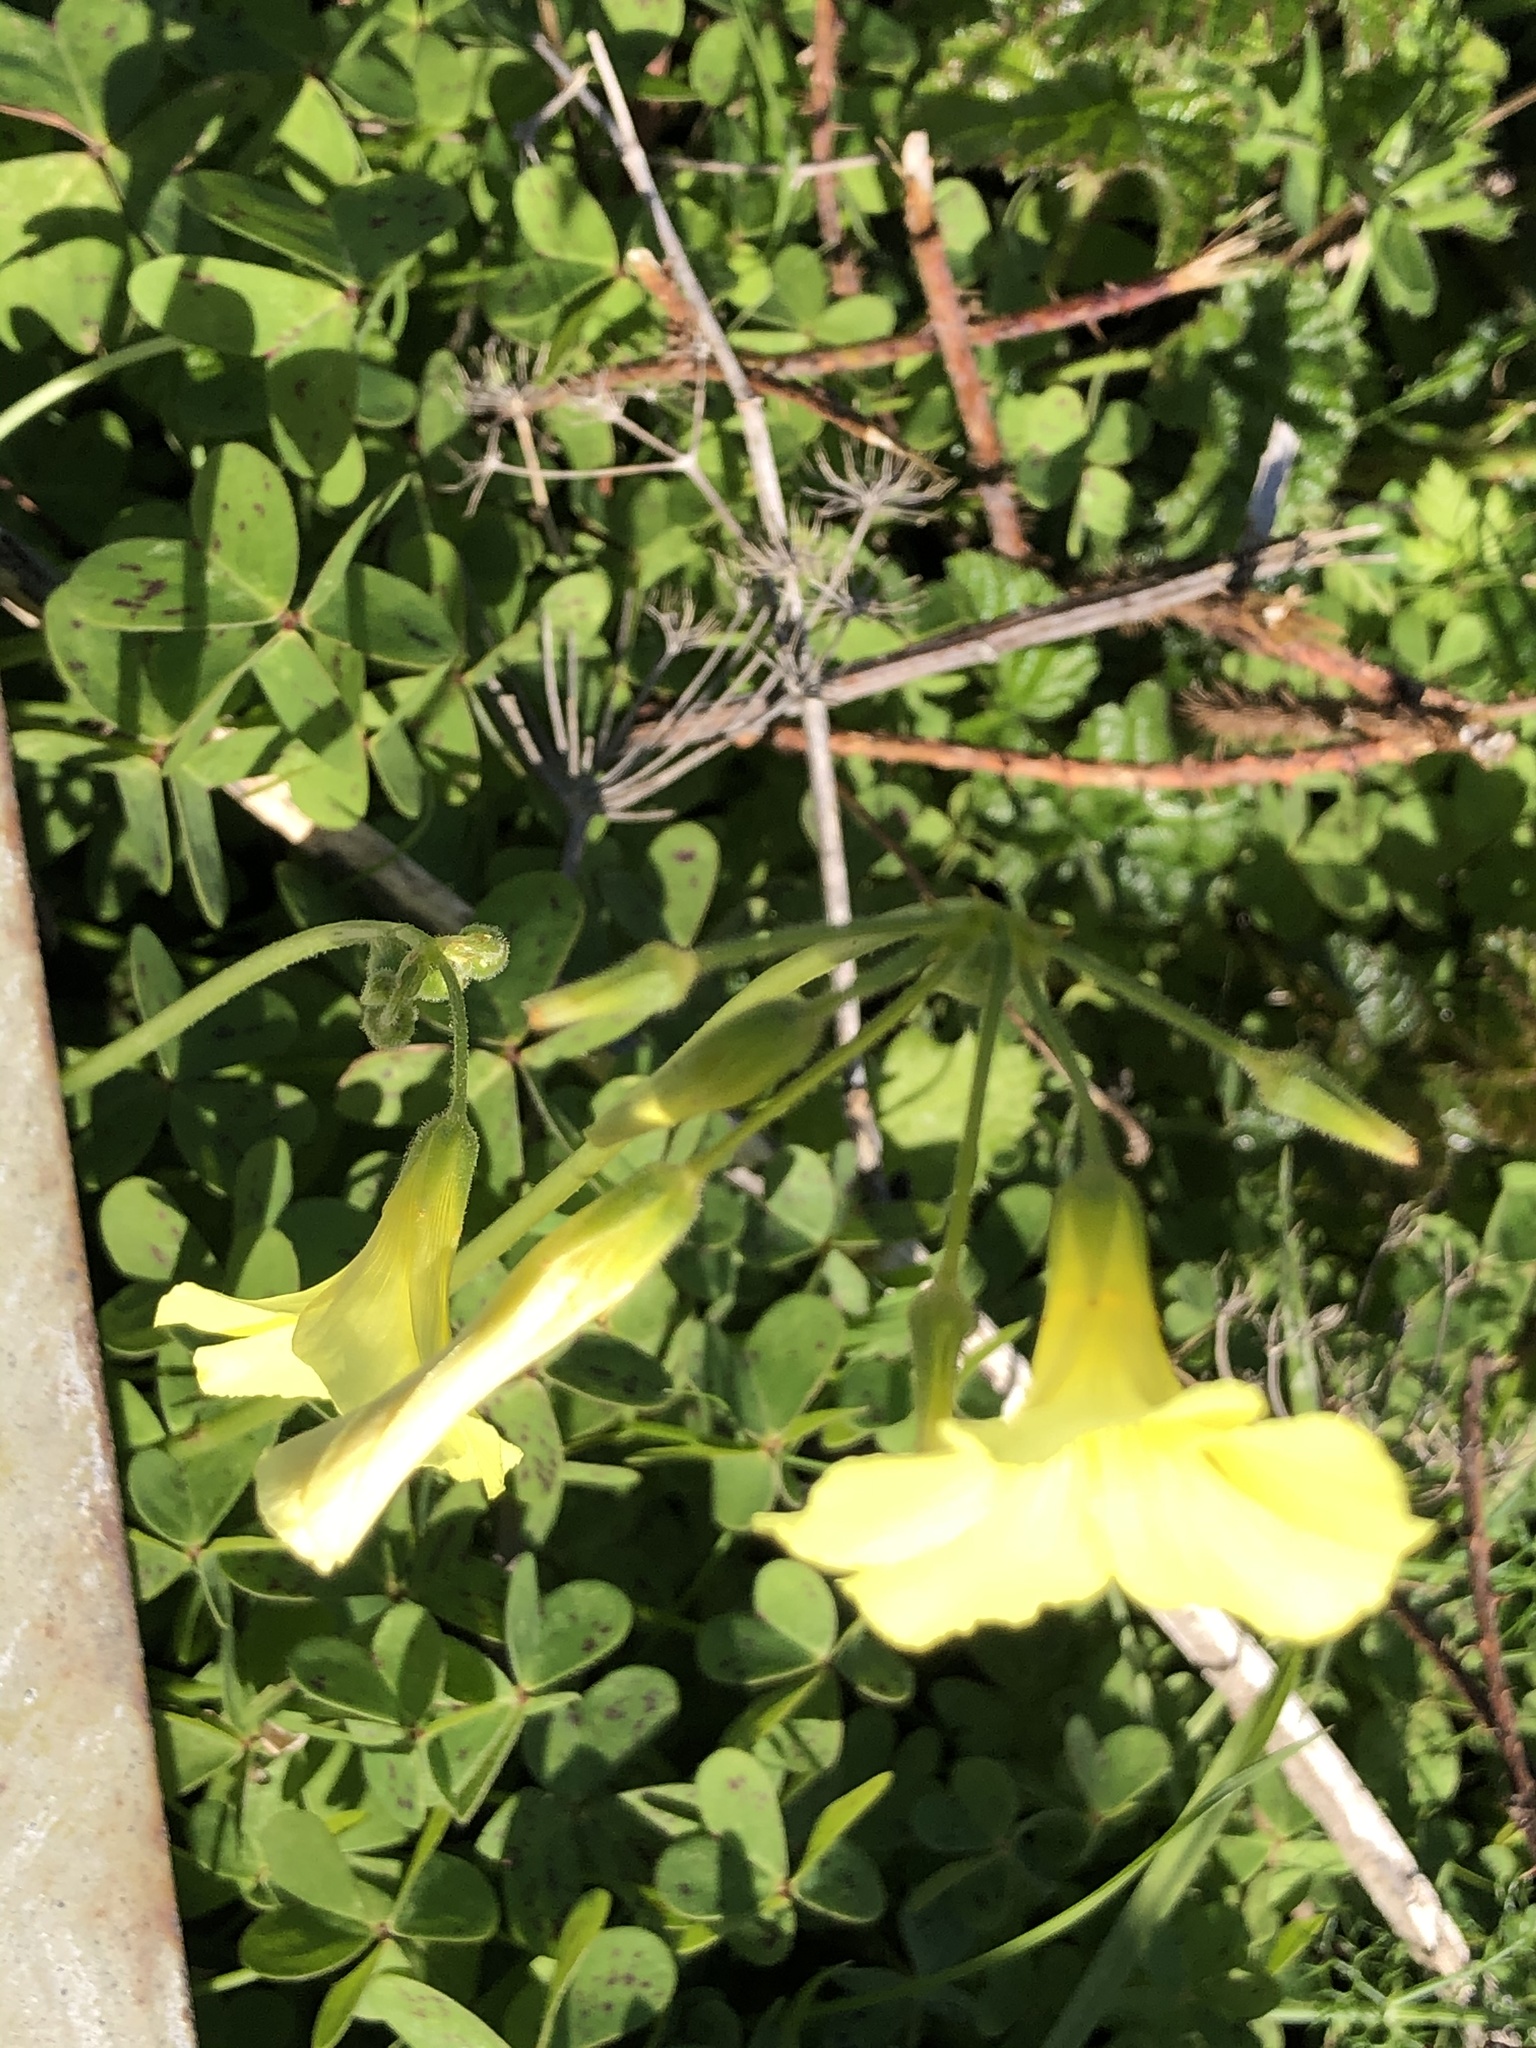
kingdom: Plantae
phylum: Tracheophyta
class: Magnoliopsida
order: Oxalidales
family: Oxalidaceae
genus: Oxalis
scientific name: Oxalis pes-caprae
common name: Bermuda-buttercup
